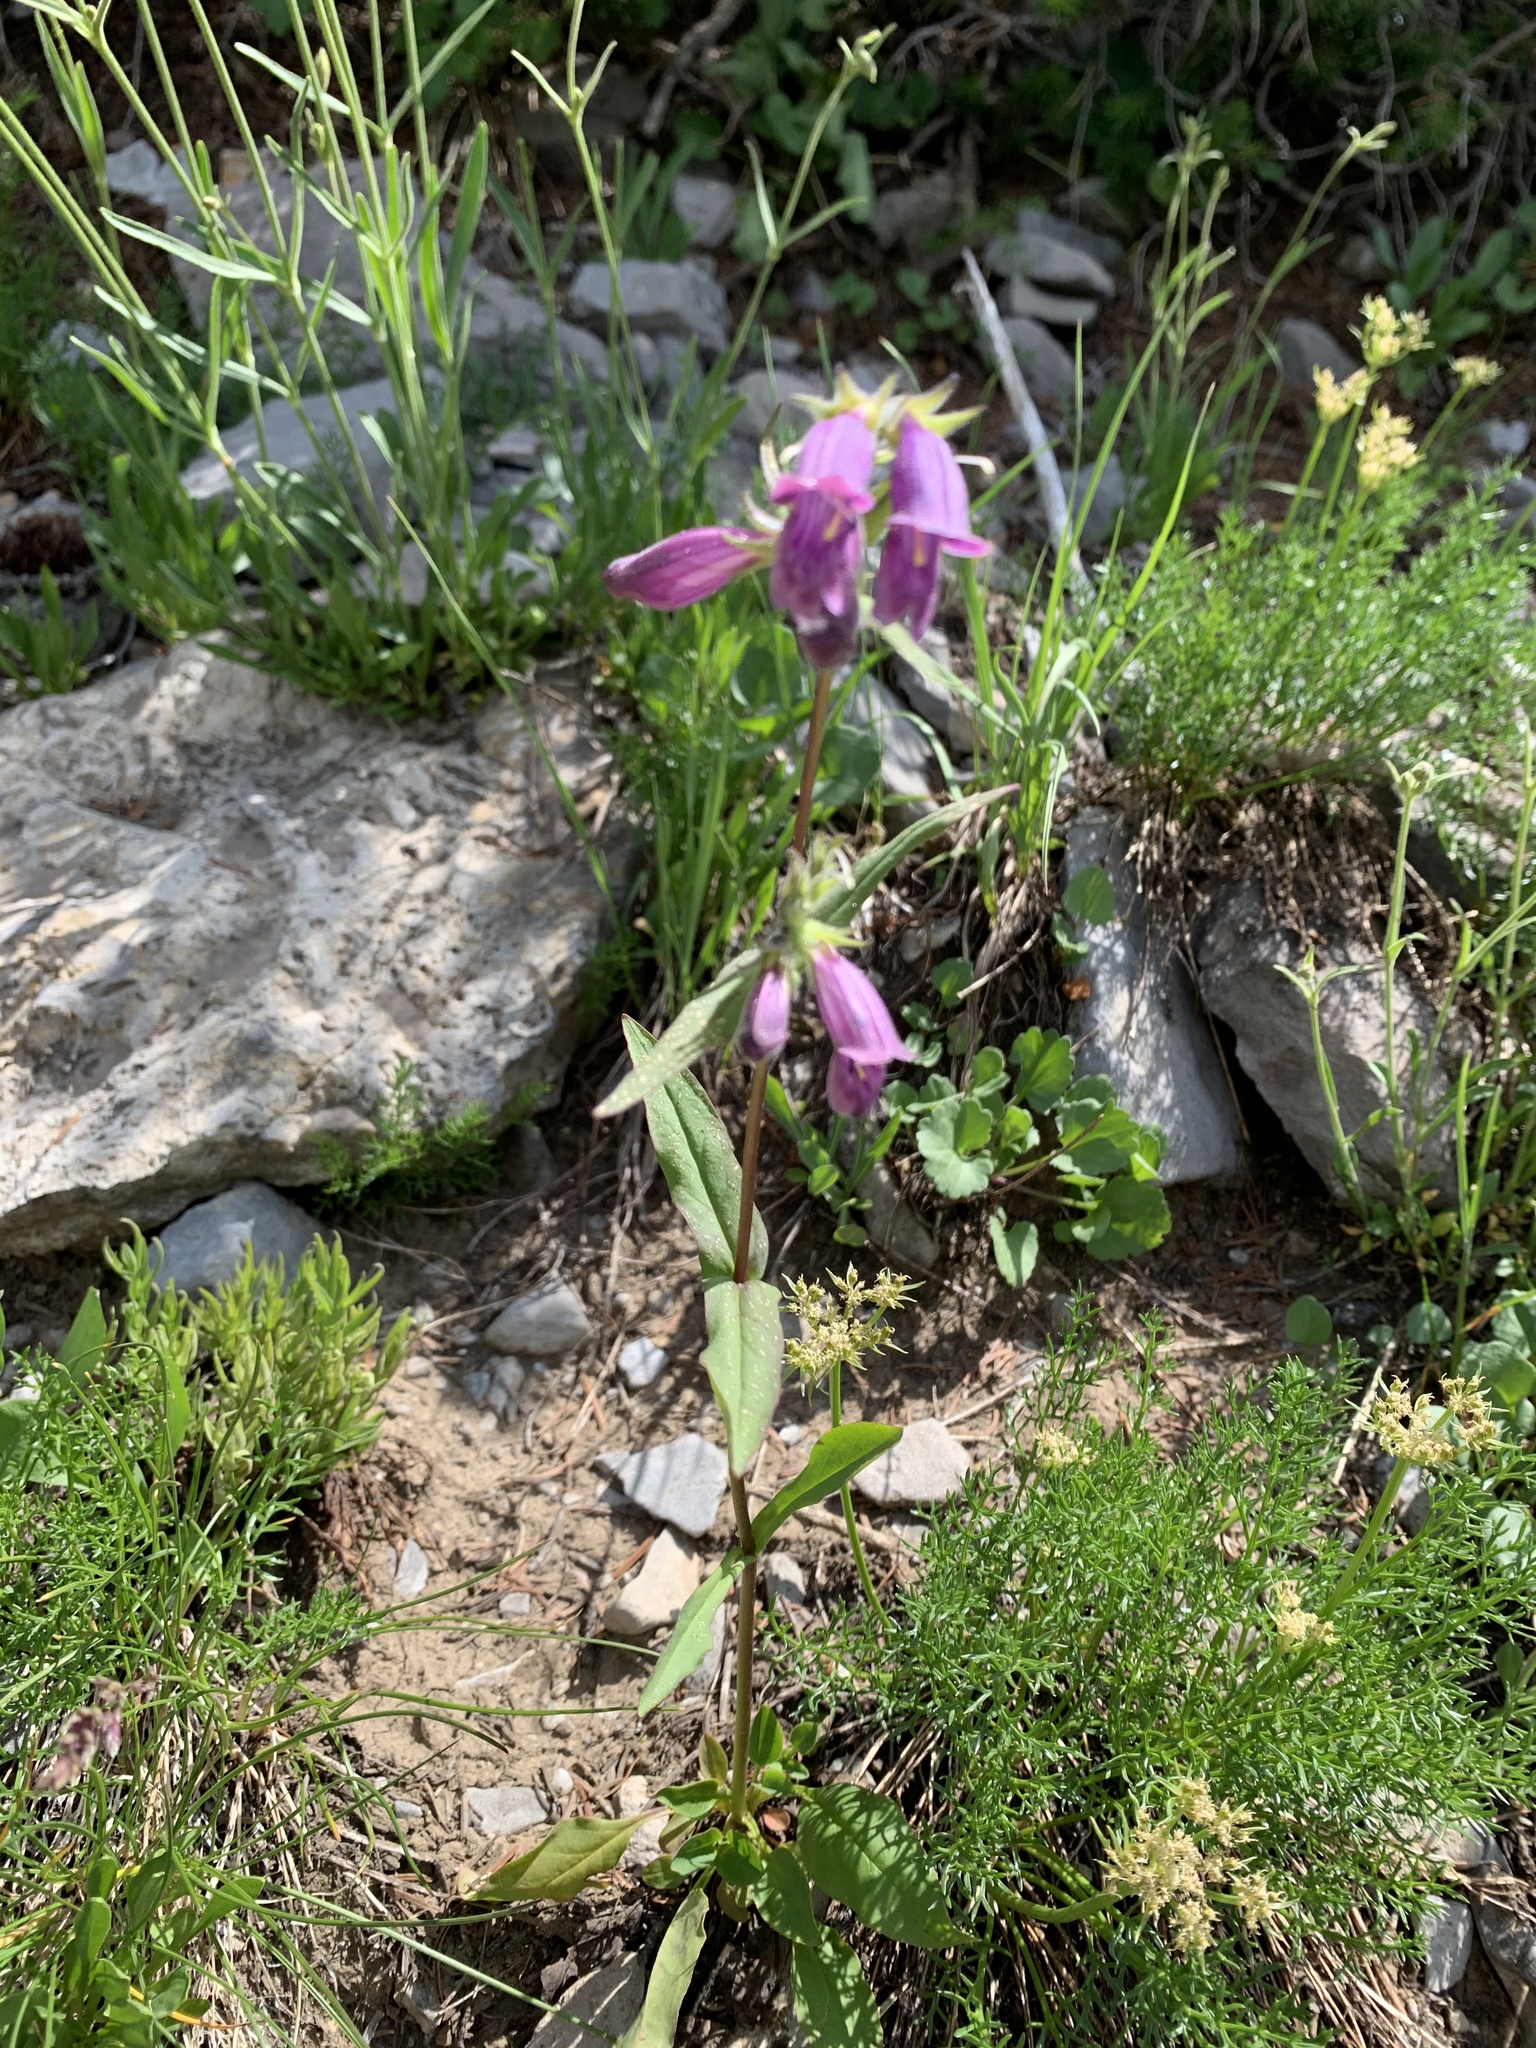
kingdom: Plantae
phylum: Tracheophyta
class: Magnoliopsida
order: Lamiales
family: Plantaginaceae
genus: Penstemon
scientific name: Penstemon whippleanus
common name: Whipple's penstemon
